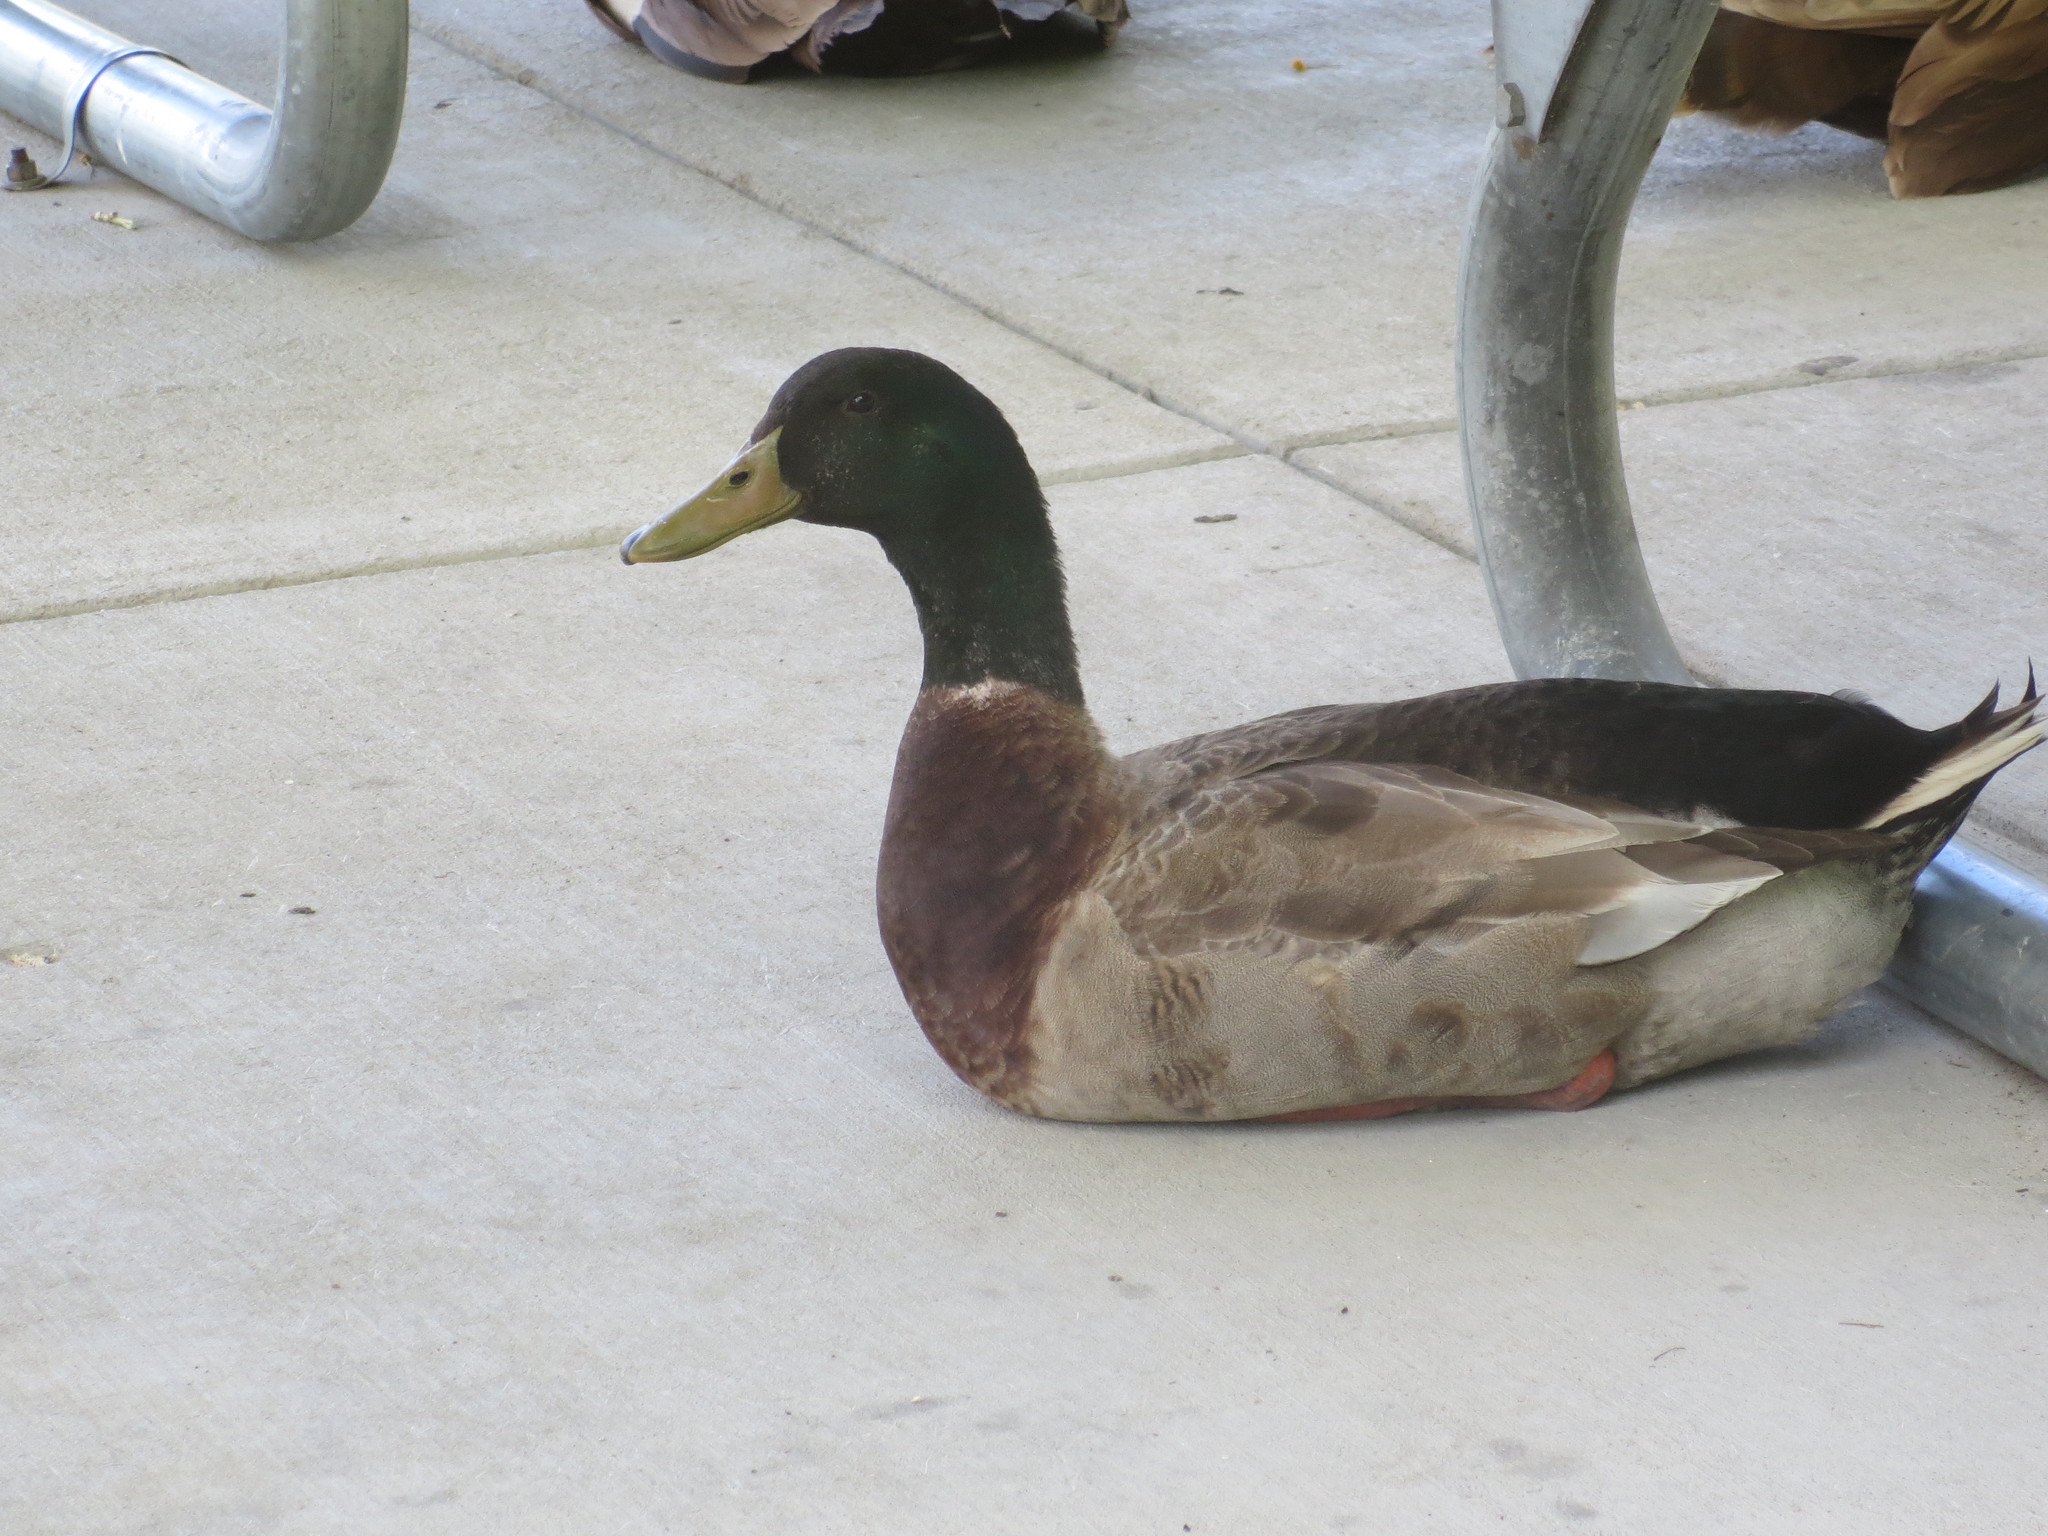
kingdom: Animalia
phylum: Chordata
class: Aves
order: Anseriformes
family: Anatidae
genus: Anas
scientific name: Anas platyrhynchos
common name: Mallard
